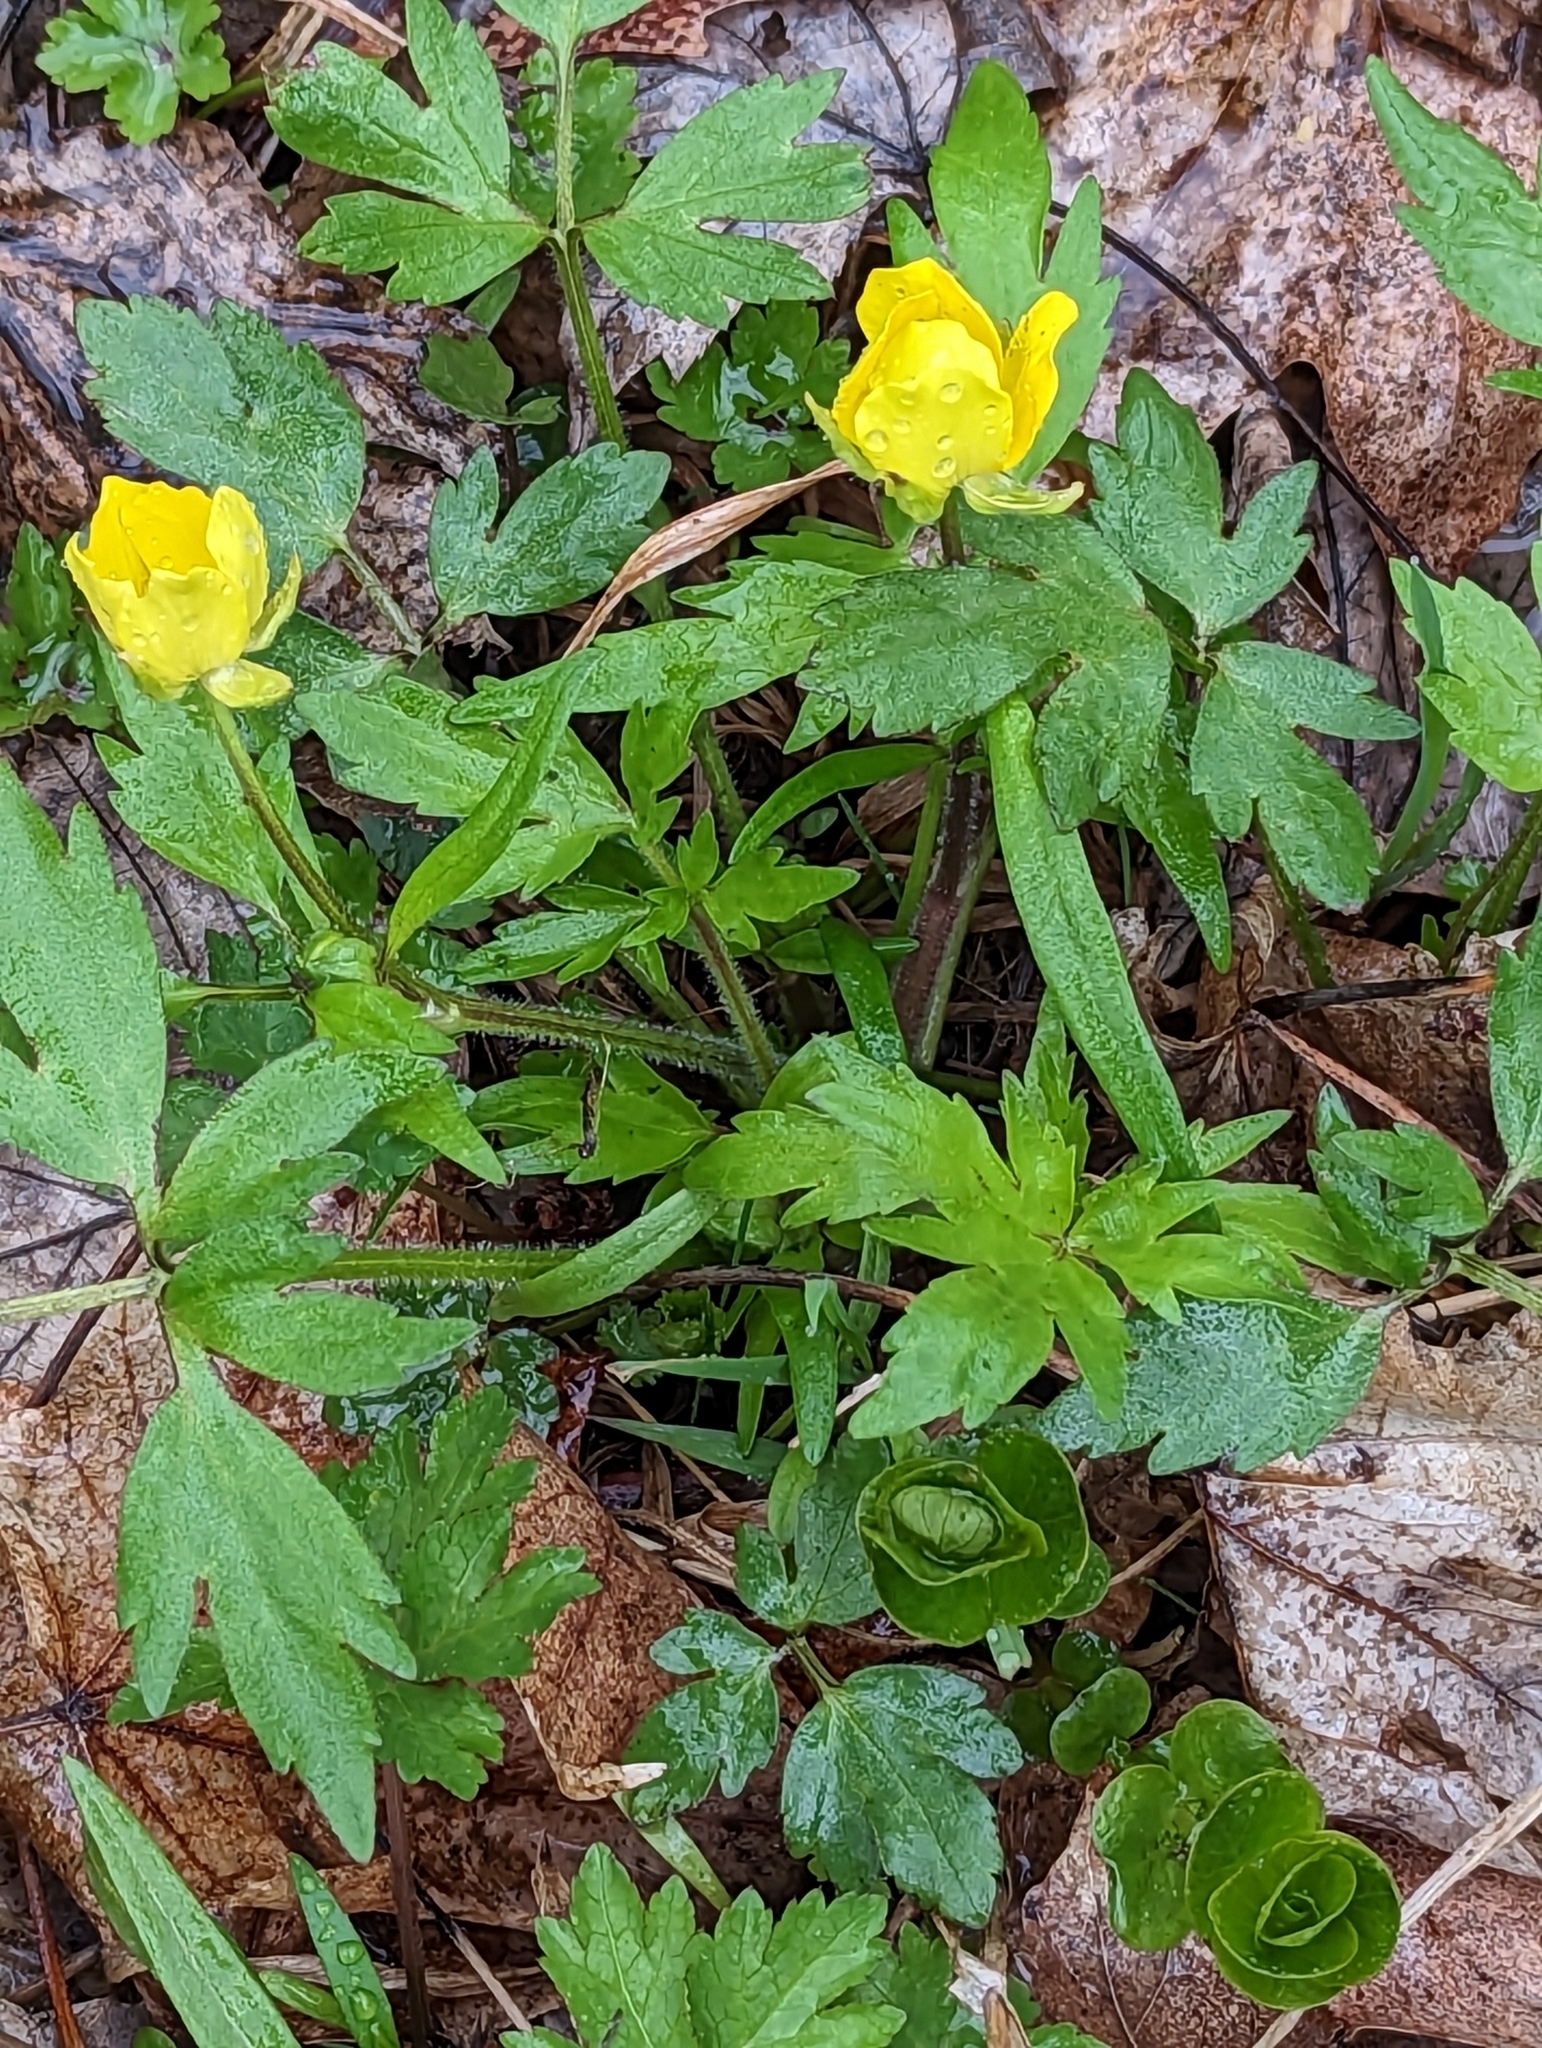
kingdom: Plantae
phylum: Tracheophyta
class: Magnoliopsida
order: Ranunculales
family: Ranunculaceae
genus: Ranunculus
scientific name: Ranunculus hispidus
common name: Bristly buttercup
